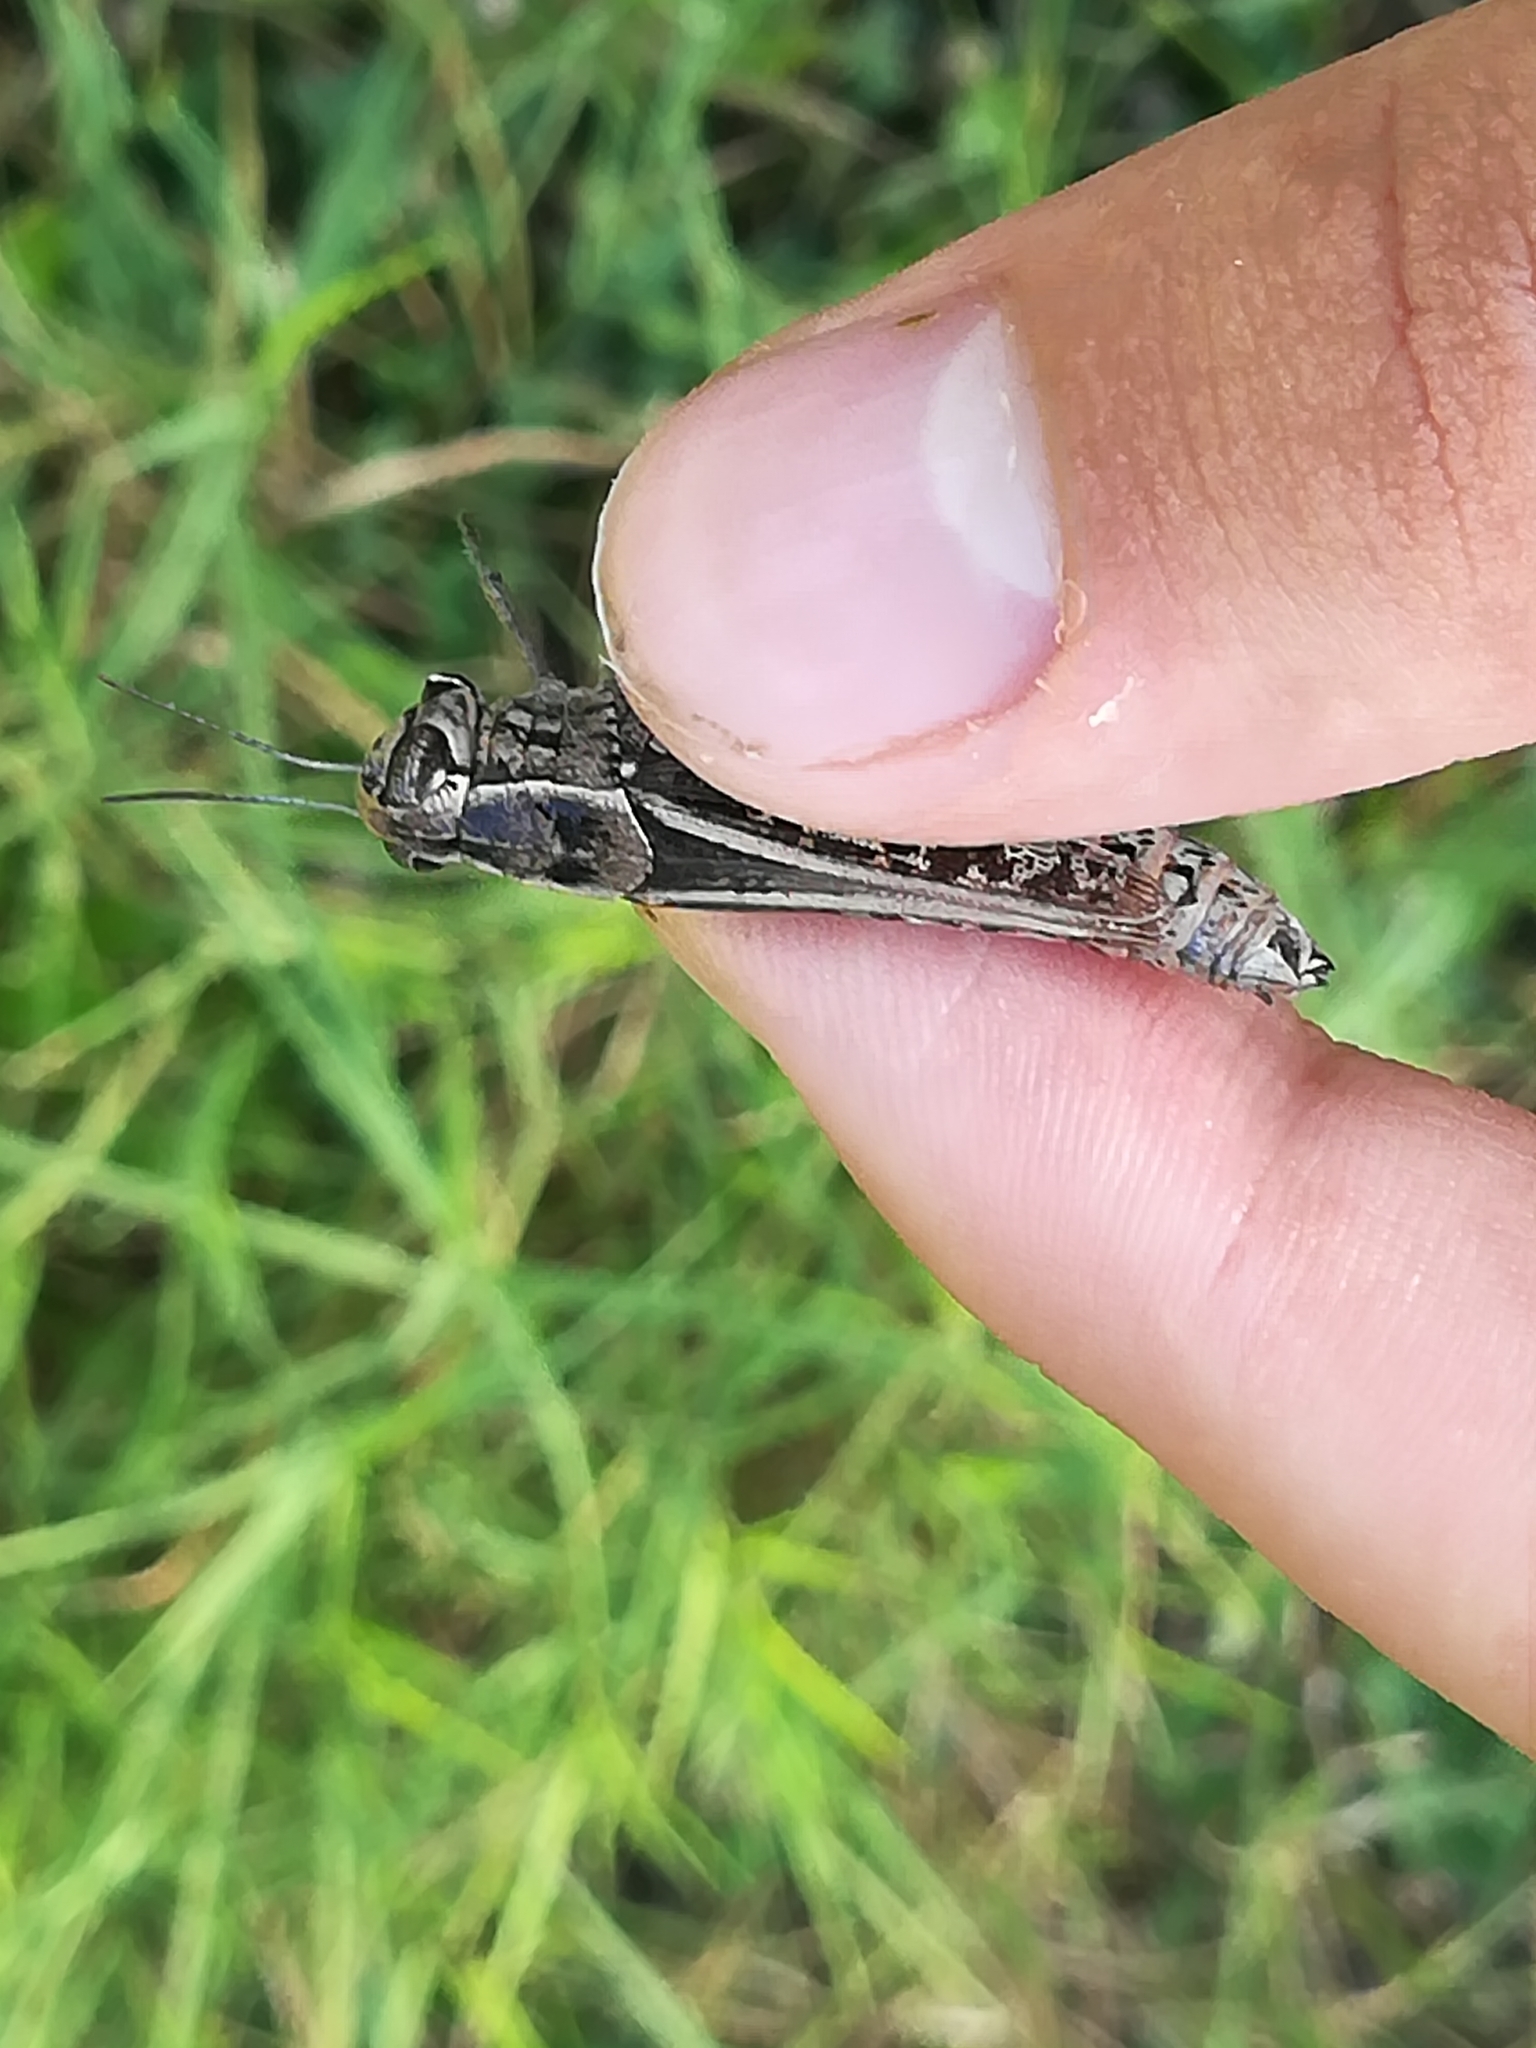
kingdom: Animalia
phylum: Arthropoda
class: Insecta
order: Orthoptera
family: Acrididae
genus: Calliptamus
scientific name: Calliptamus italicus
